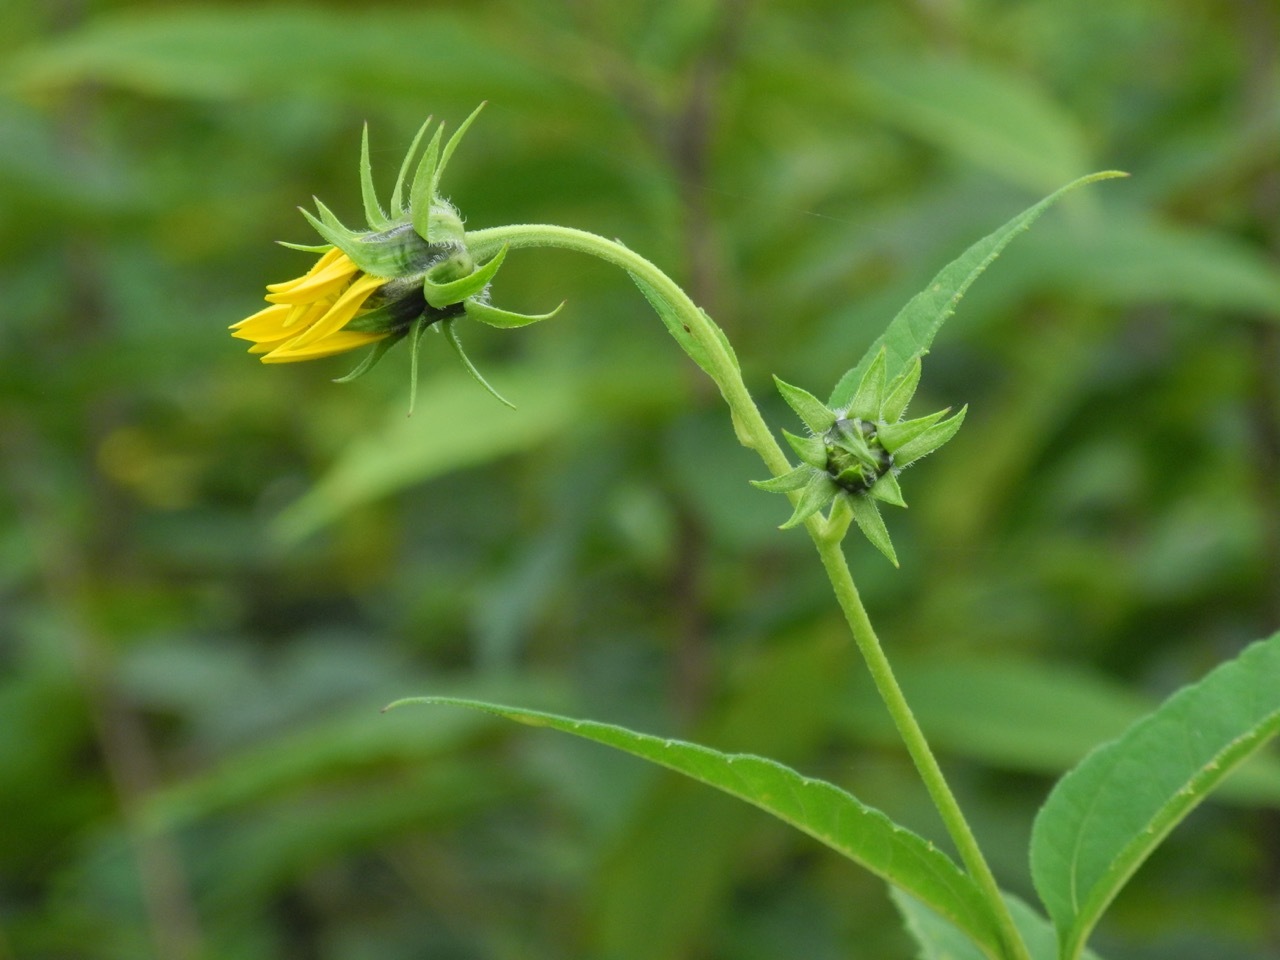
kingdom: Plantae
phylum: Tracheophyta
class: Magnoliopsida
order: Asterales
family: Asteraceae
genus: Helianthus
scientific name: Helianthus tuberosus
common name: Jerusalem artichoke
